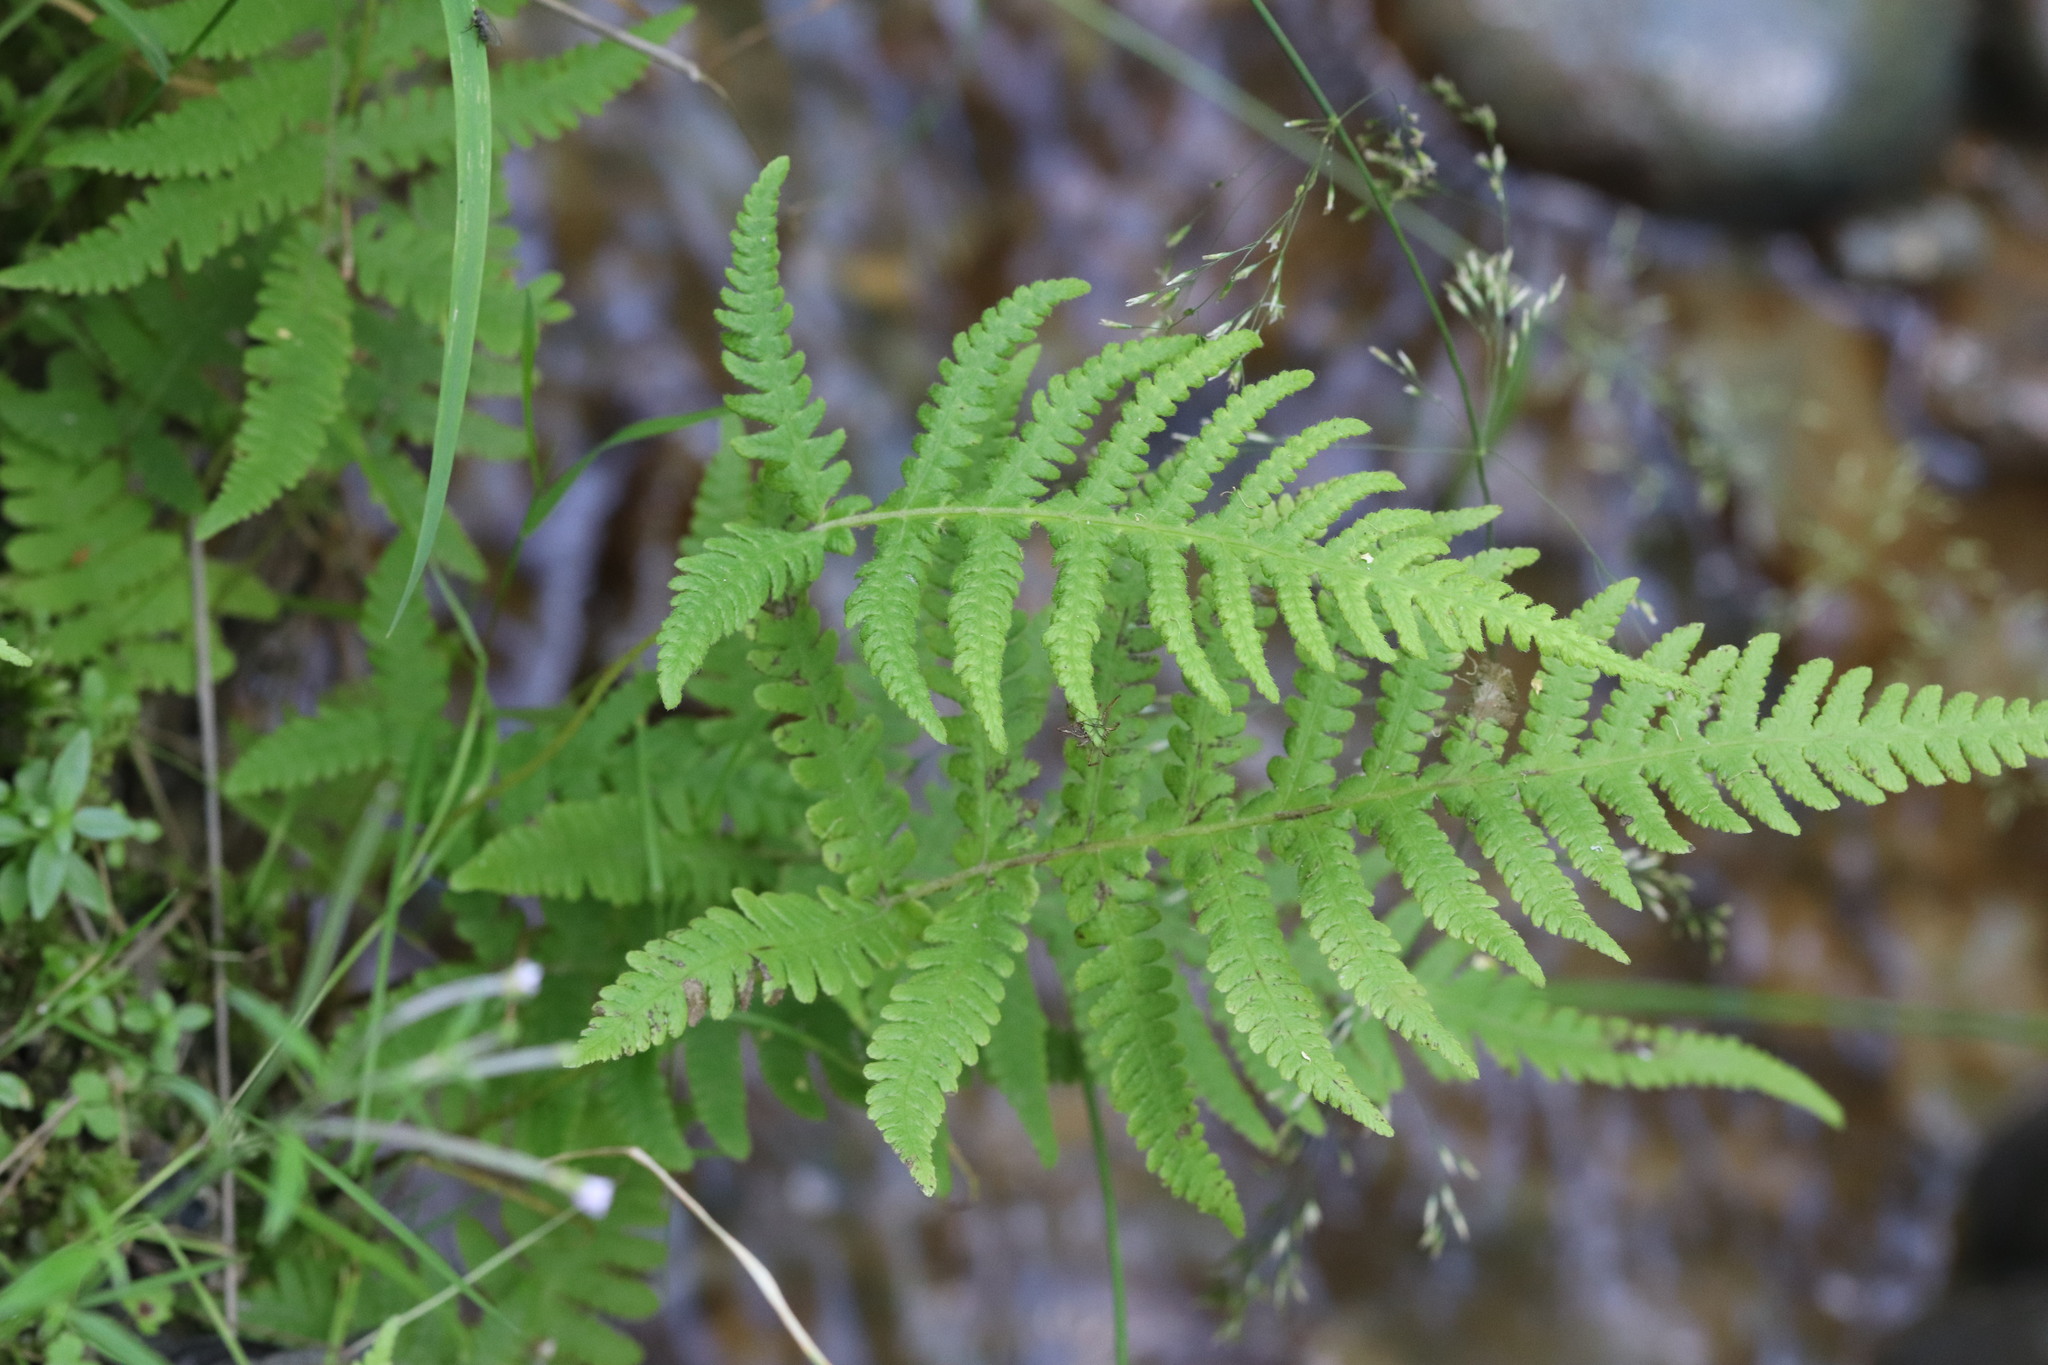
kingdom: Plantae
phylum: Tracheophyta
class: Polypodiopsida
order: Polypodiales
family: Thelypteridaceae
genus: Phegopteris
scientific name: Phegopteris connectilis
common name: Beech fern
